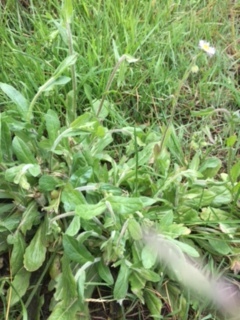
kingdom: Plantae
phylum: Tracheophyta
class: Magnoliopsida
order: Asterales
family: Asteraceae
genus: Erigeron
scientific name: Erigeron philadelphicus
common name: Robin's-plantain
